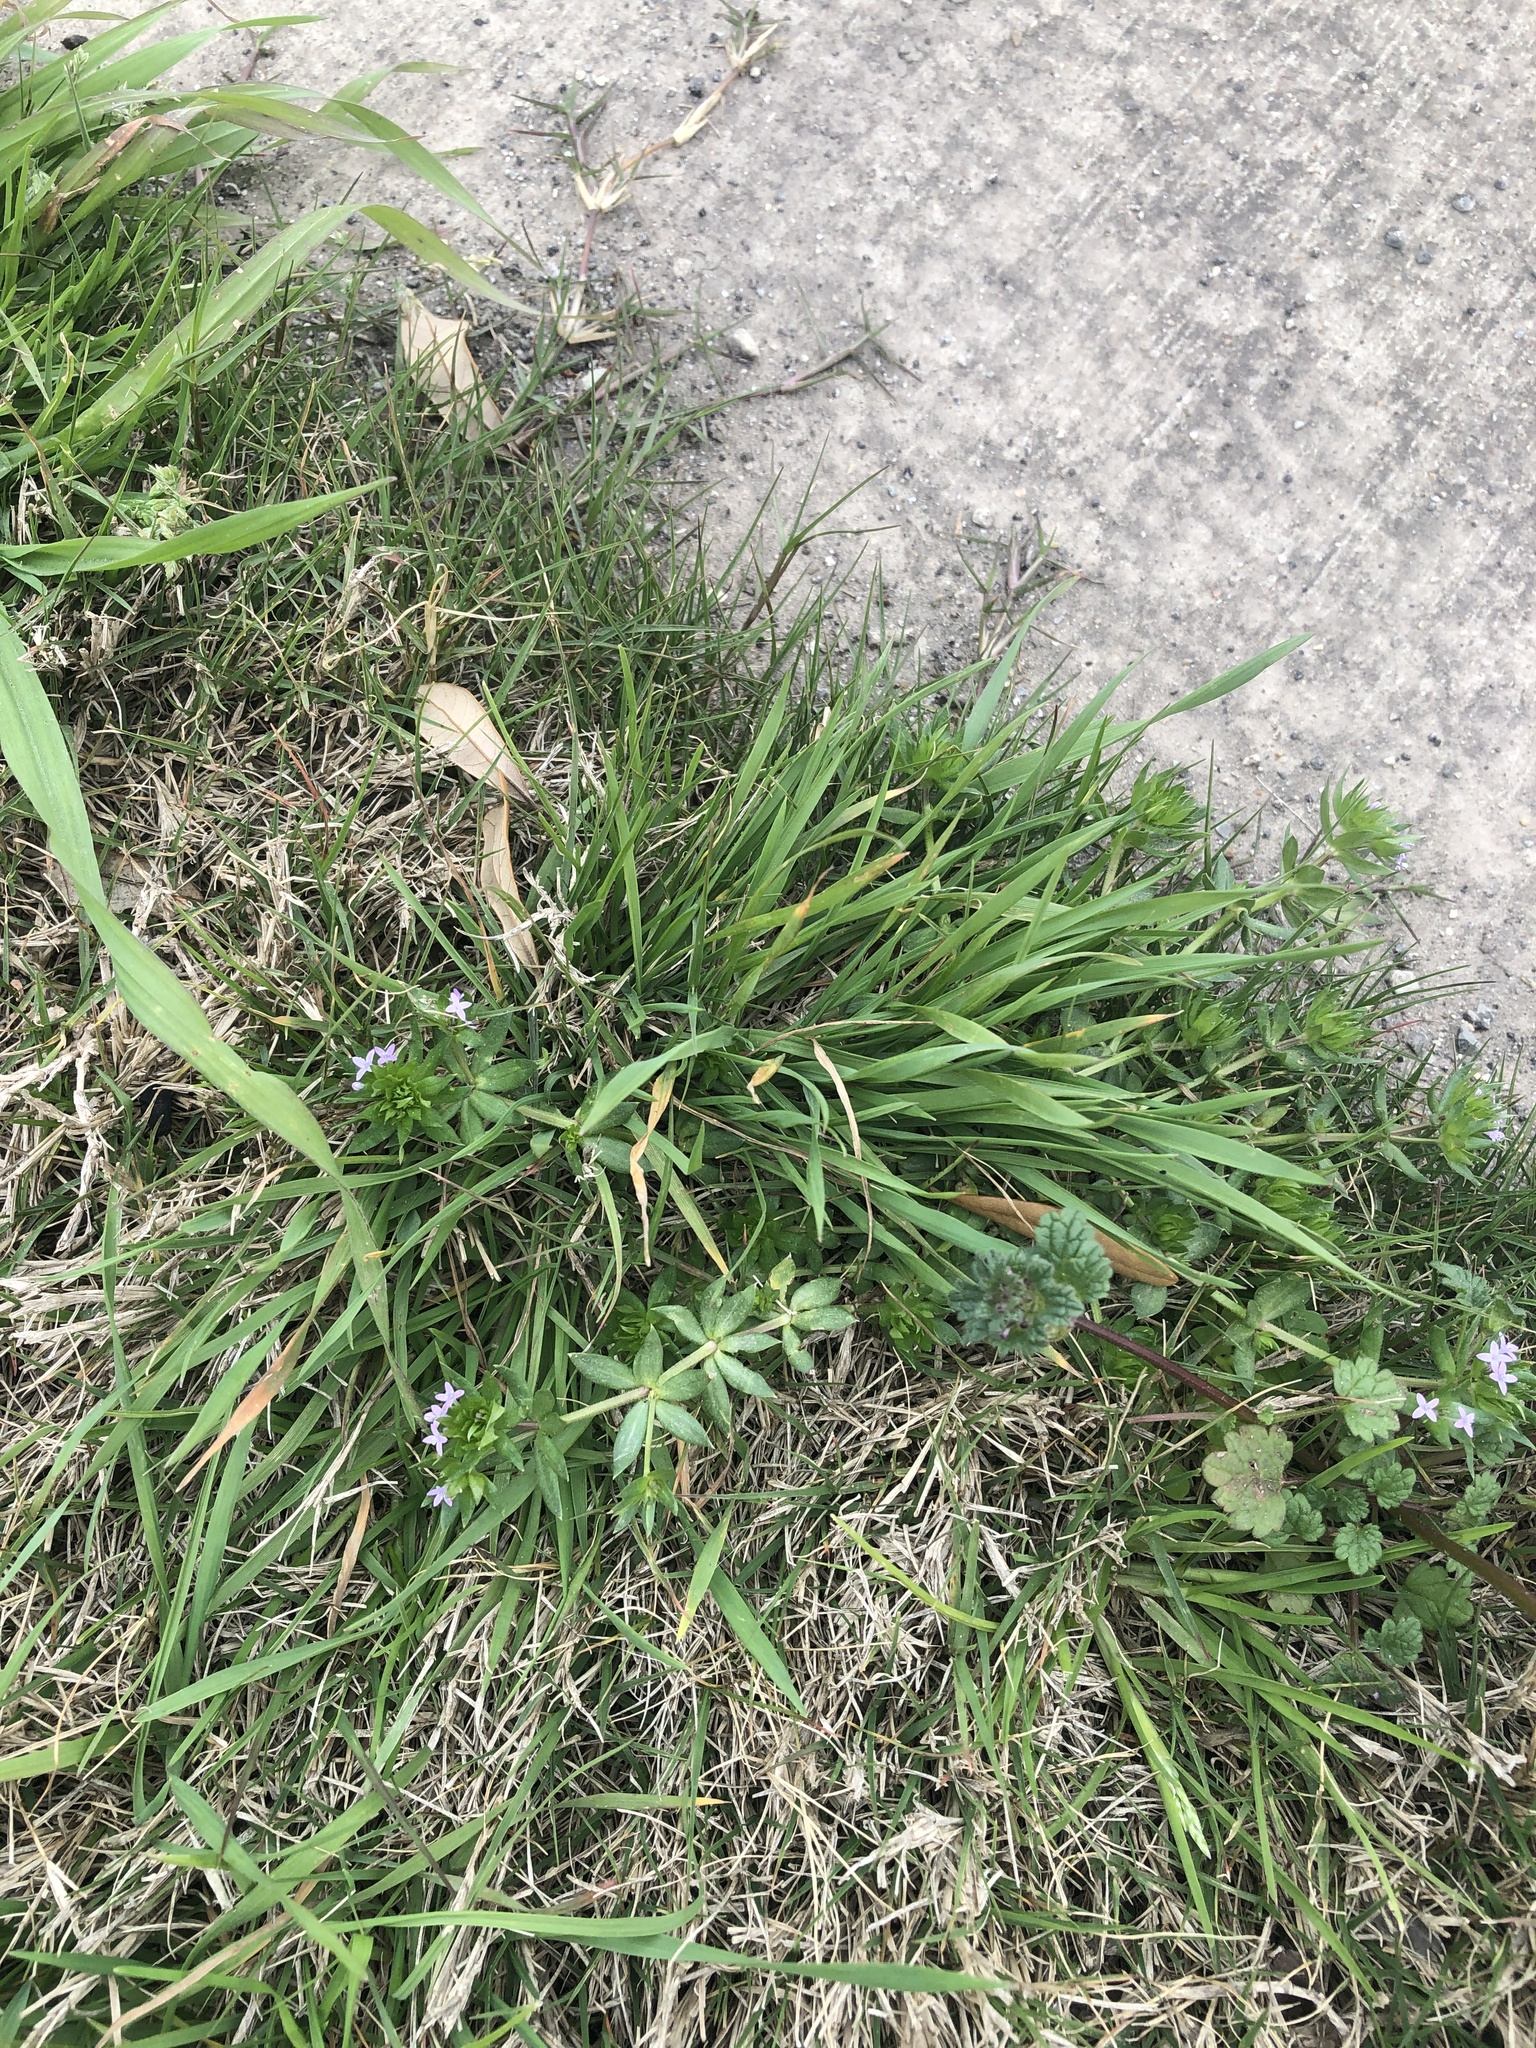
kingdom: Plantae
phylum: Tracheophyta
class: Magnoliopsida
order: Gentianales
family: Rubiaceae
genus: Sherardia
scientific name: Sherardia arvensis
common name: Field madder
